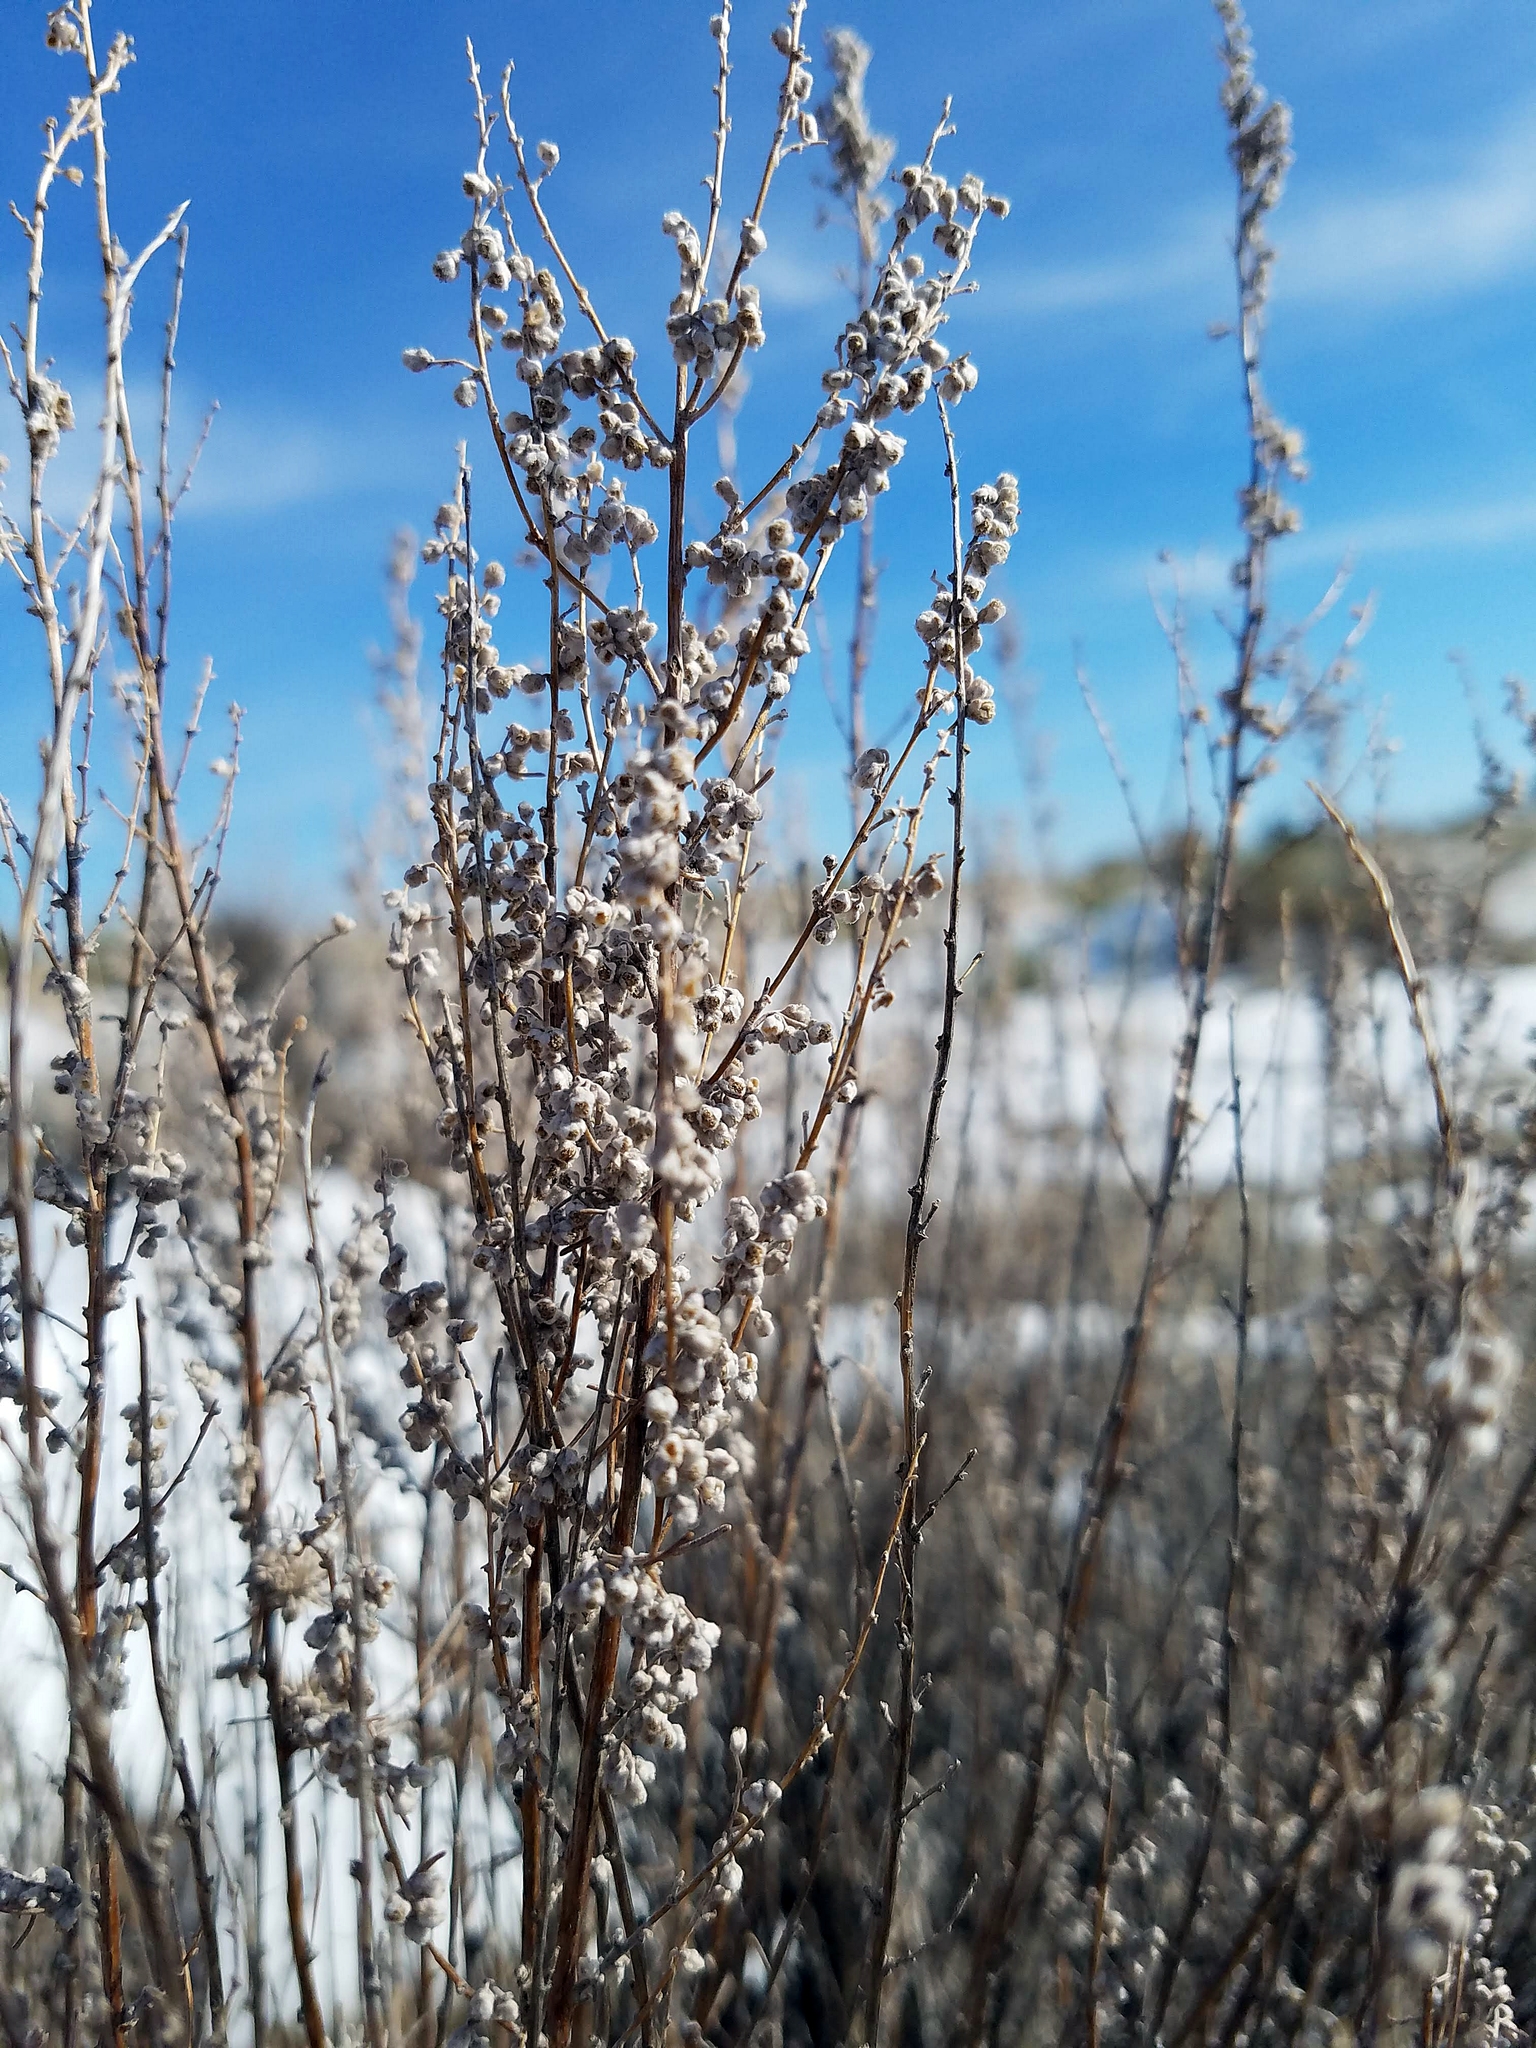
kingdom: Plantae
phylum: Tracheophyta
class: Magnoliopsida
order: Asterales
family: Asteraceae
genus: Artemisia
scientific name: Artemisia tridentata
